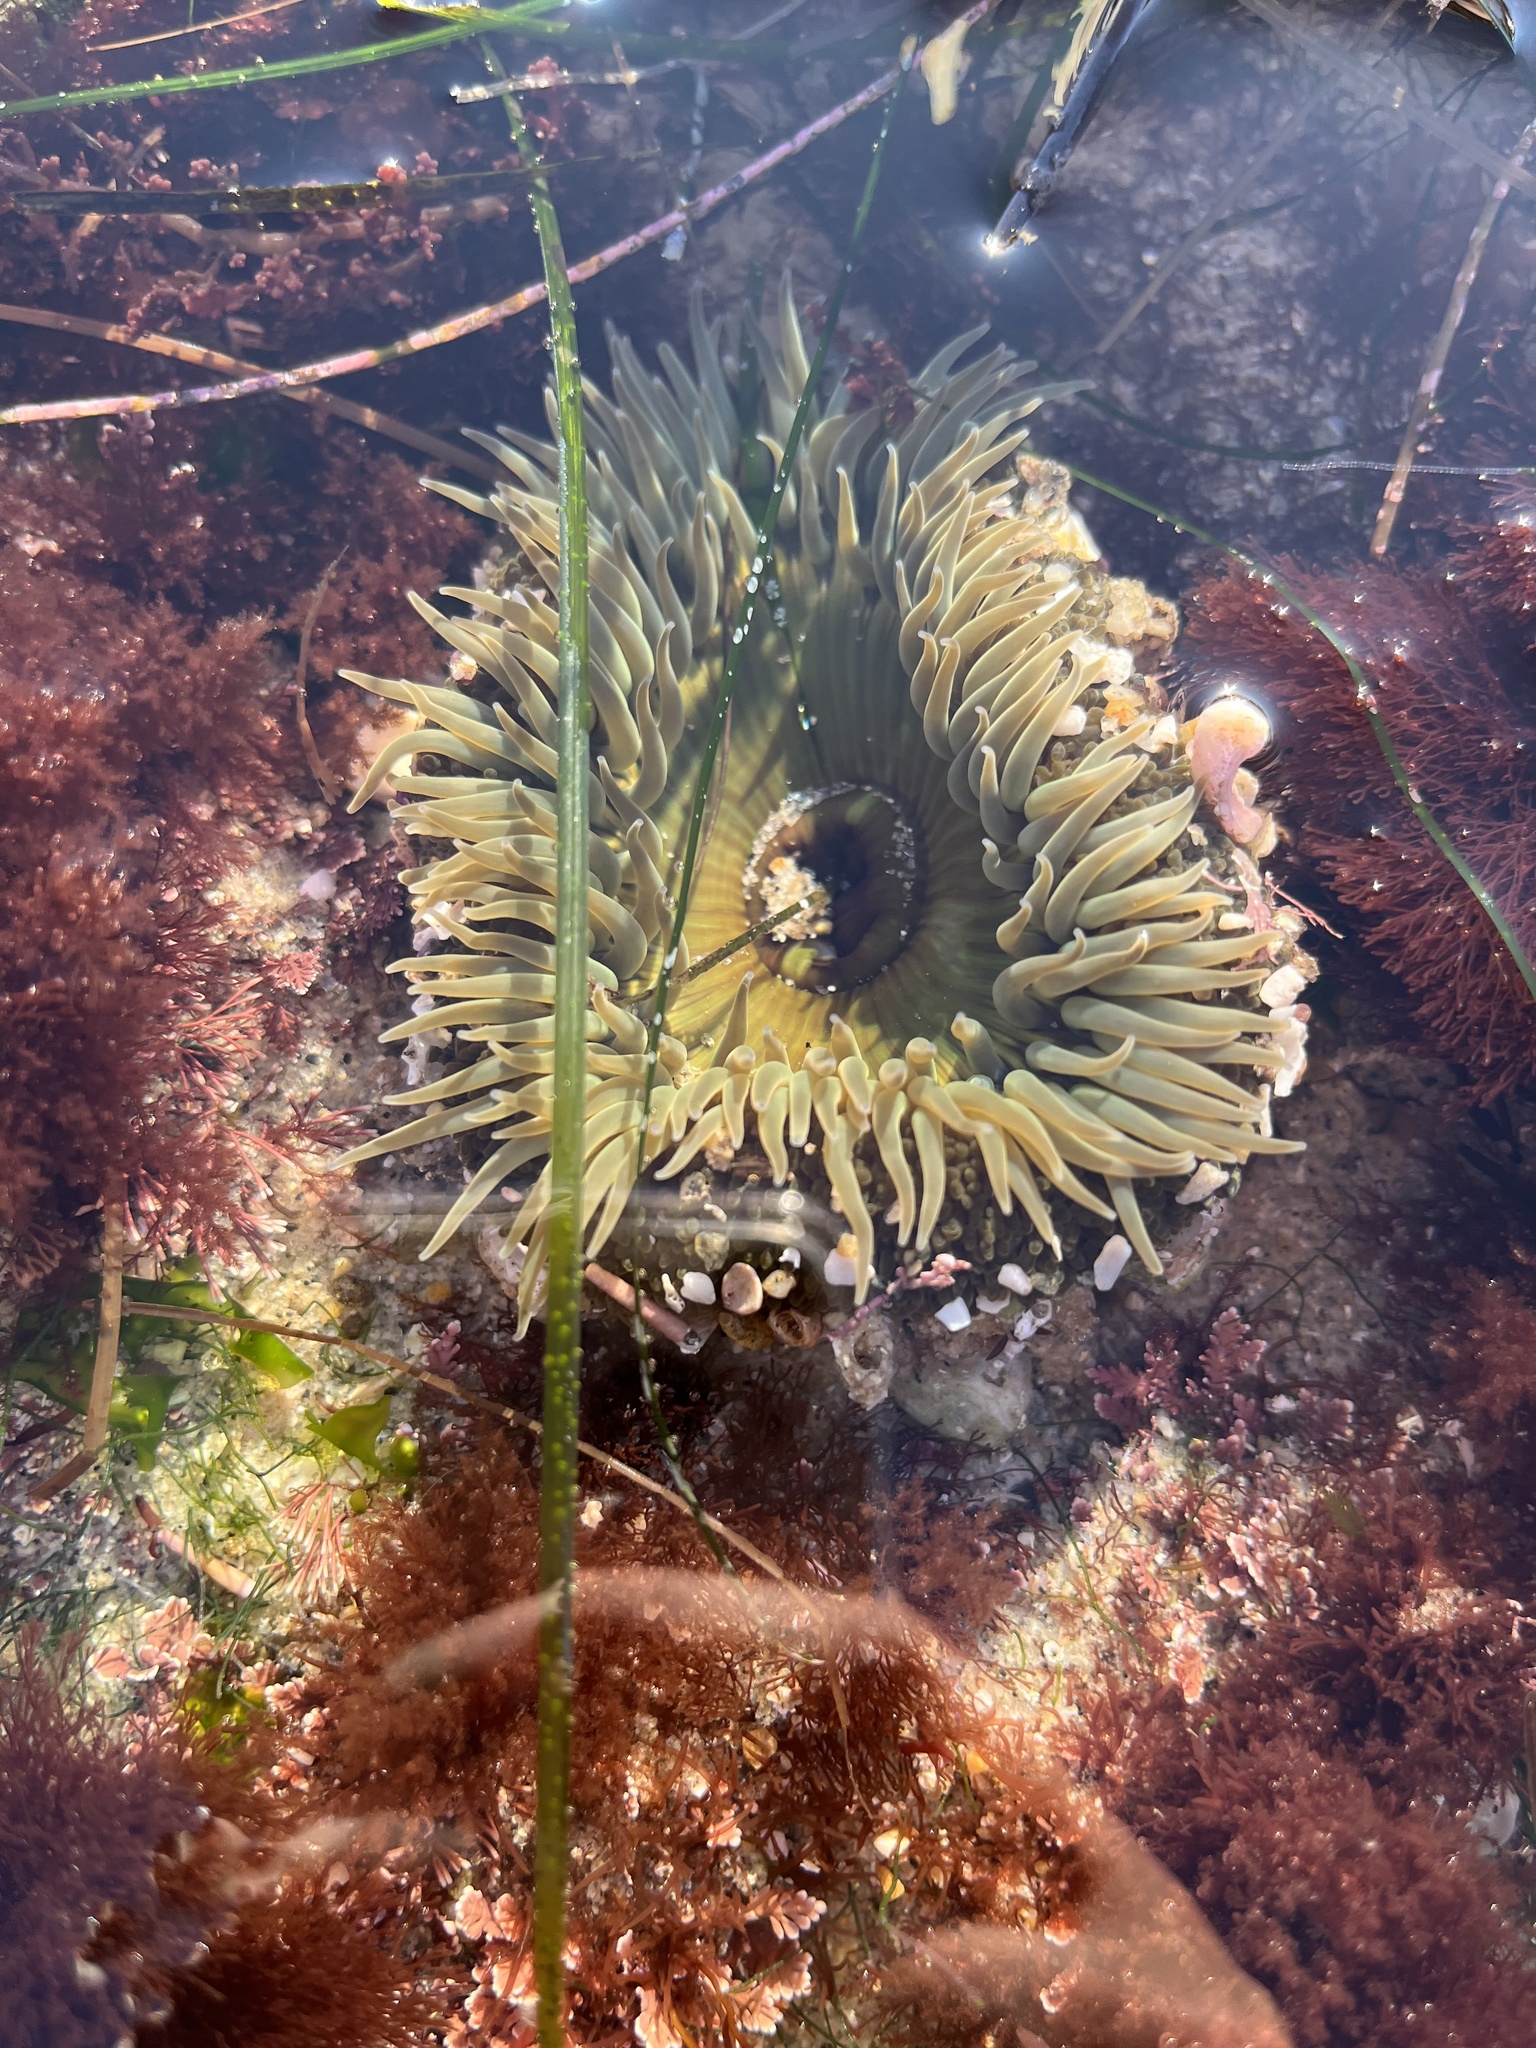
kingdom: Animalia
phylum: Cnidaria
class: Anthozoa
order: Actiniaria
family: Actiniidae
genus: Anthopleura
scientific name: Anthopleura sola
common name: Sun anemone
